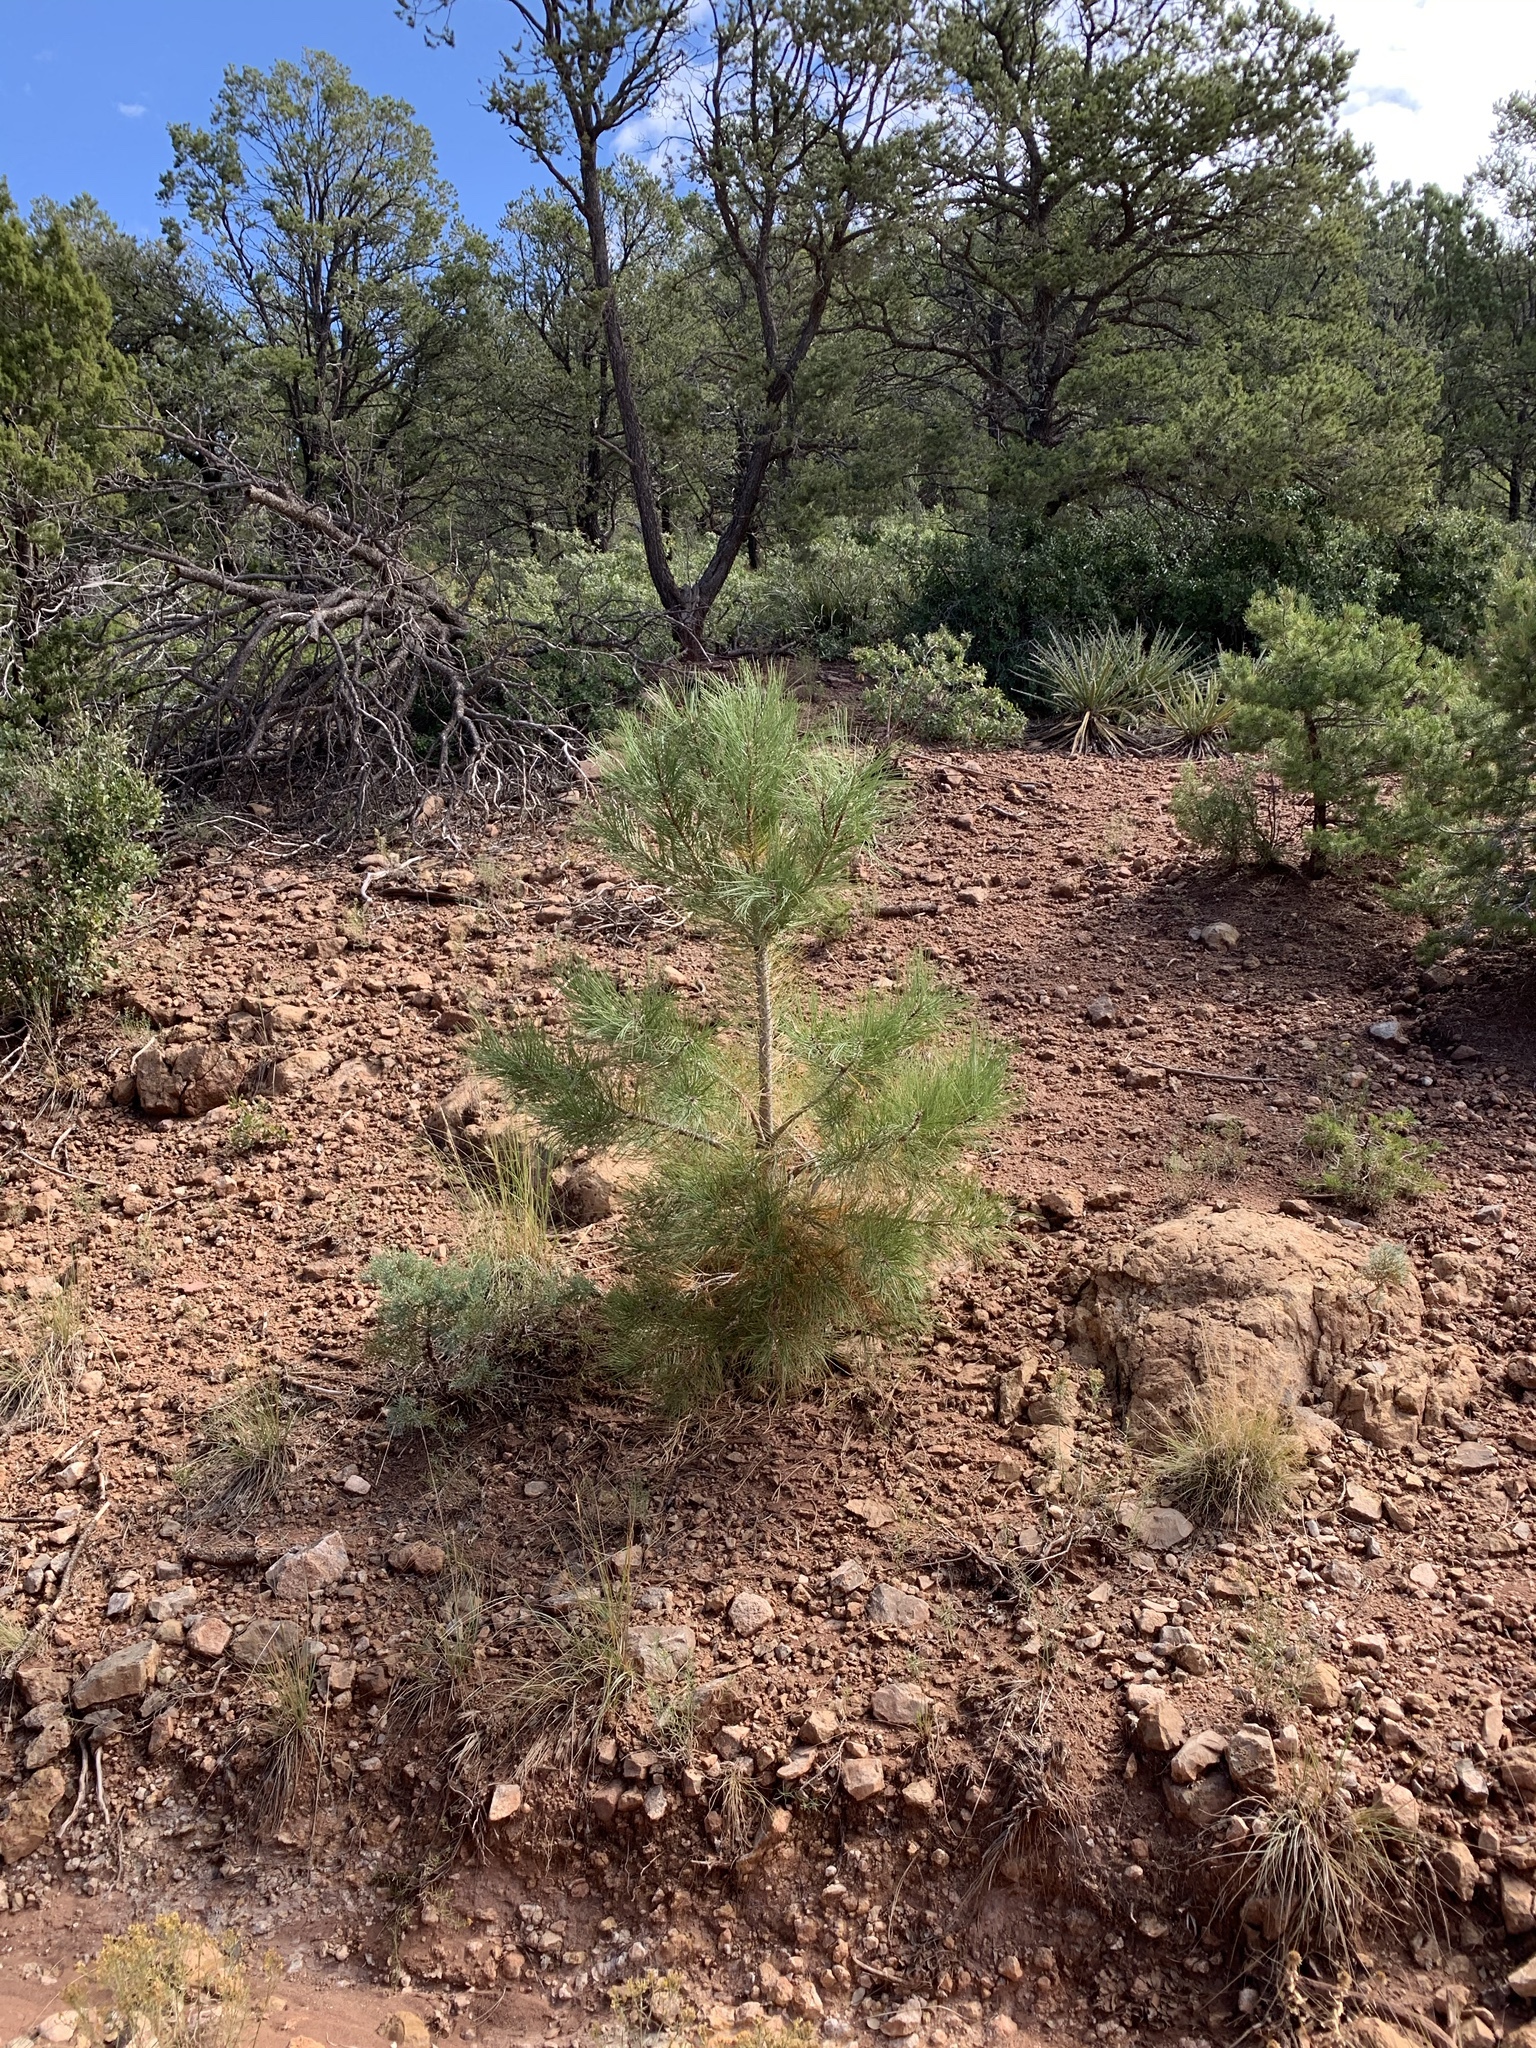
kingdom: Plantae
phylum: Tracheophyta
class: Pinopsida
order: Pinales
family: Pinaceae
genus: Pinus
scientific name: Pinus ponderosa
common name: Western yellow-pine
